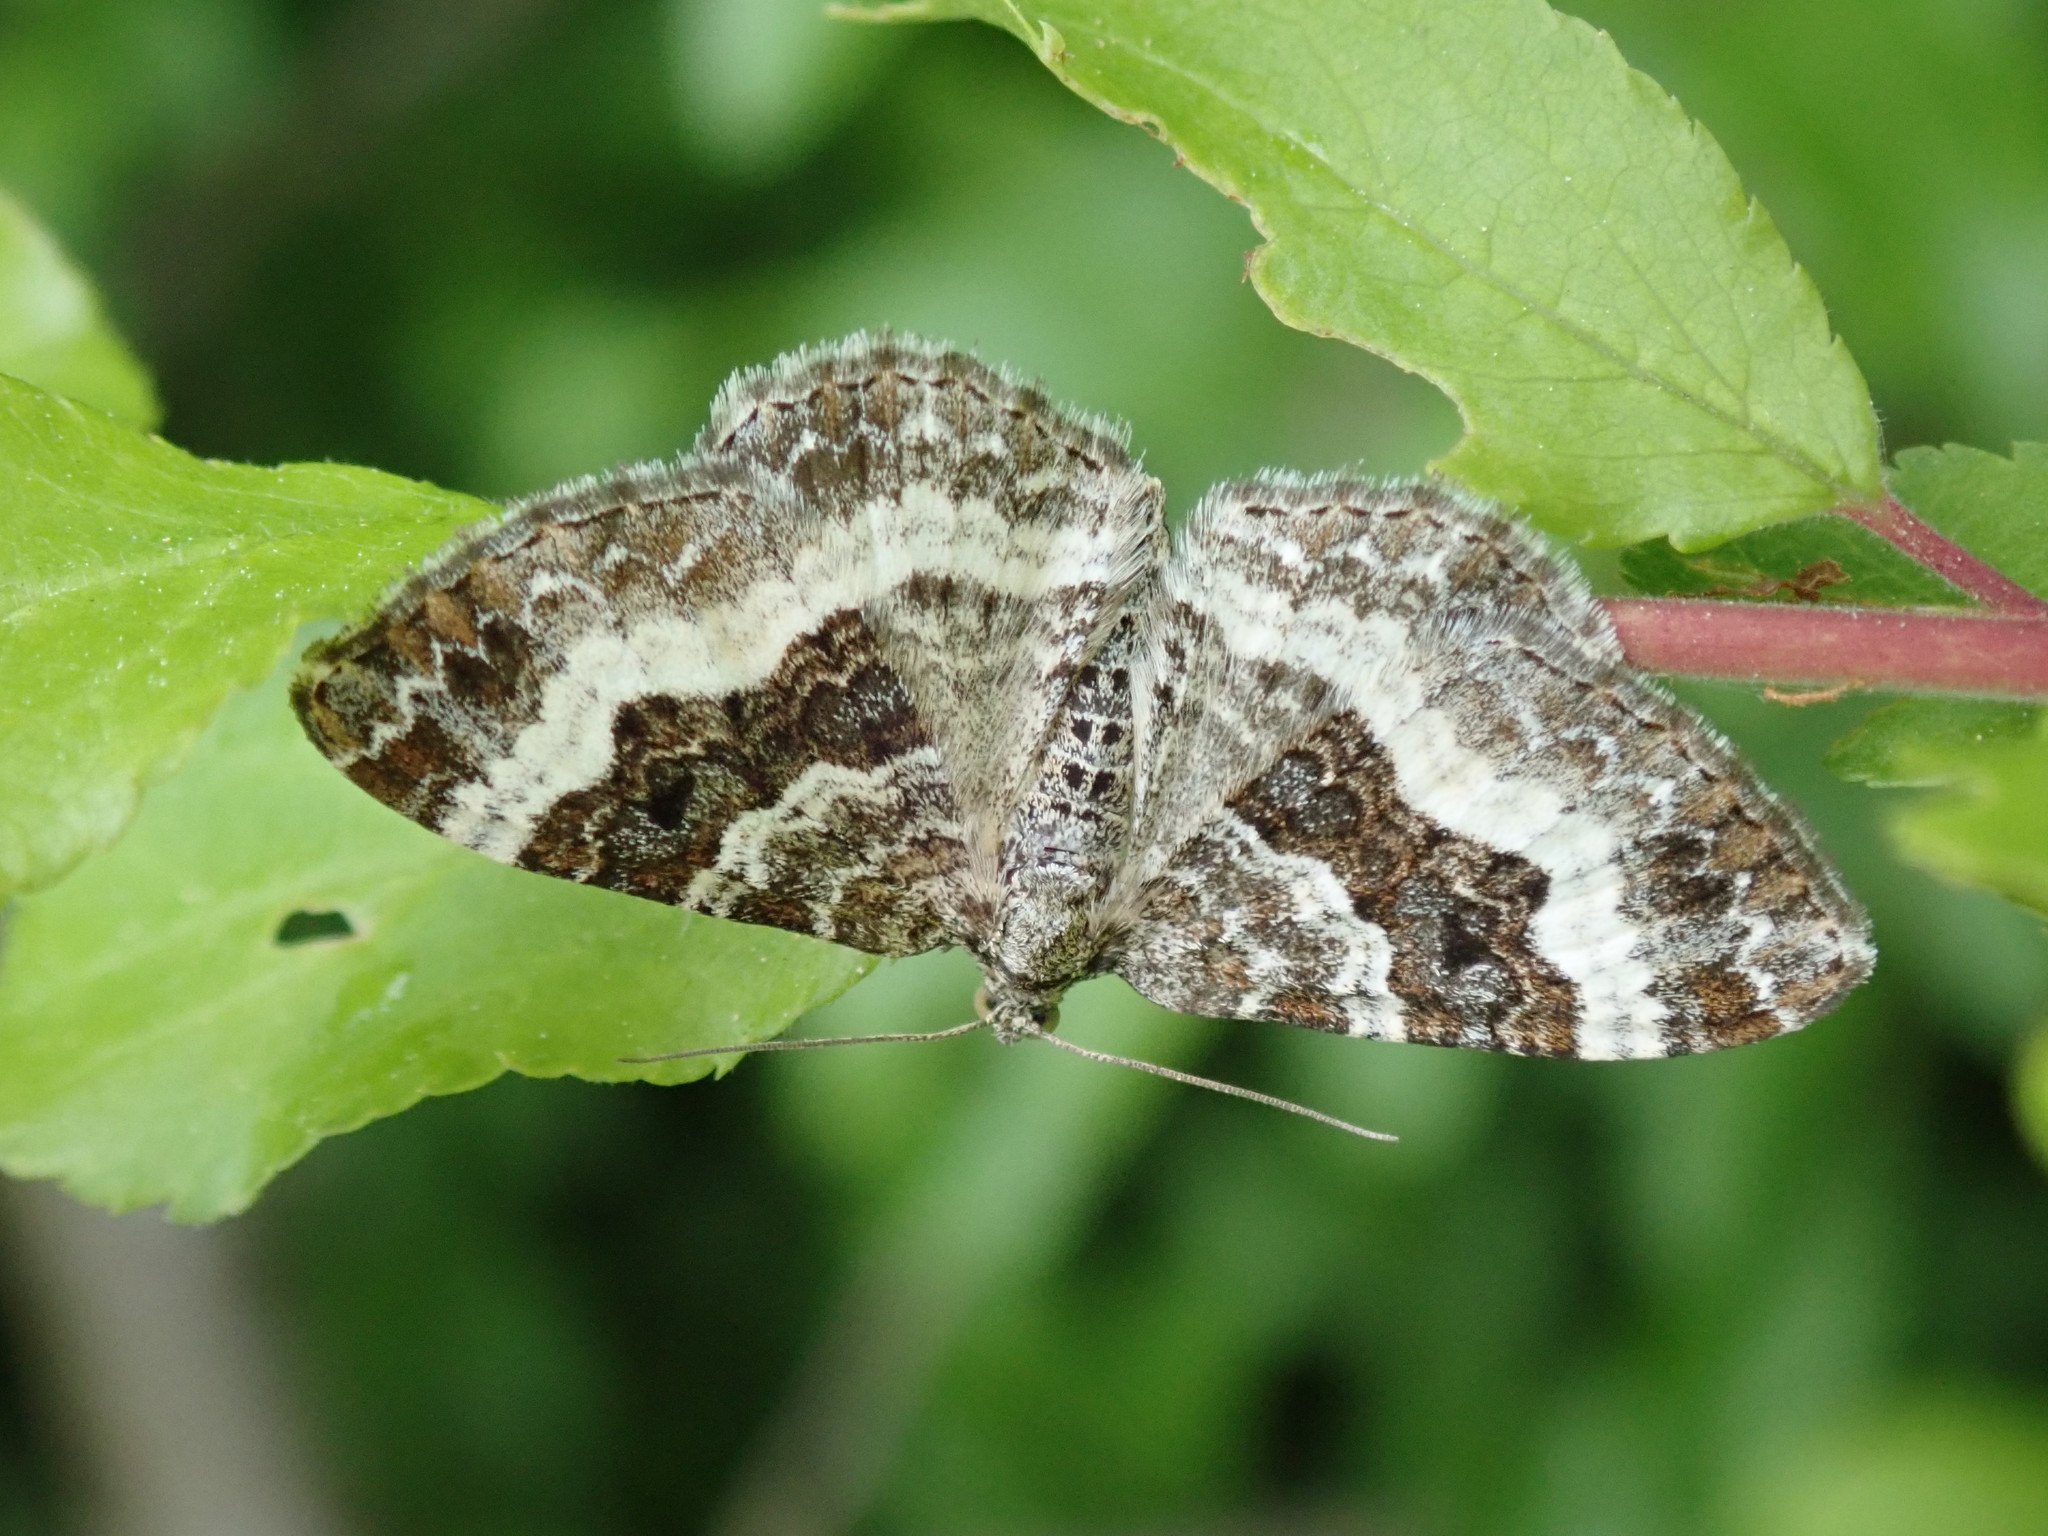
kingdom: Animalia
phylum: Arthropoda
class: Insecta
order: Lepidoptera
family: Geometridae
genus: Epirrhoe
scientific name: Epirrhoe alternata
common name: Common carpet
